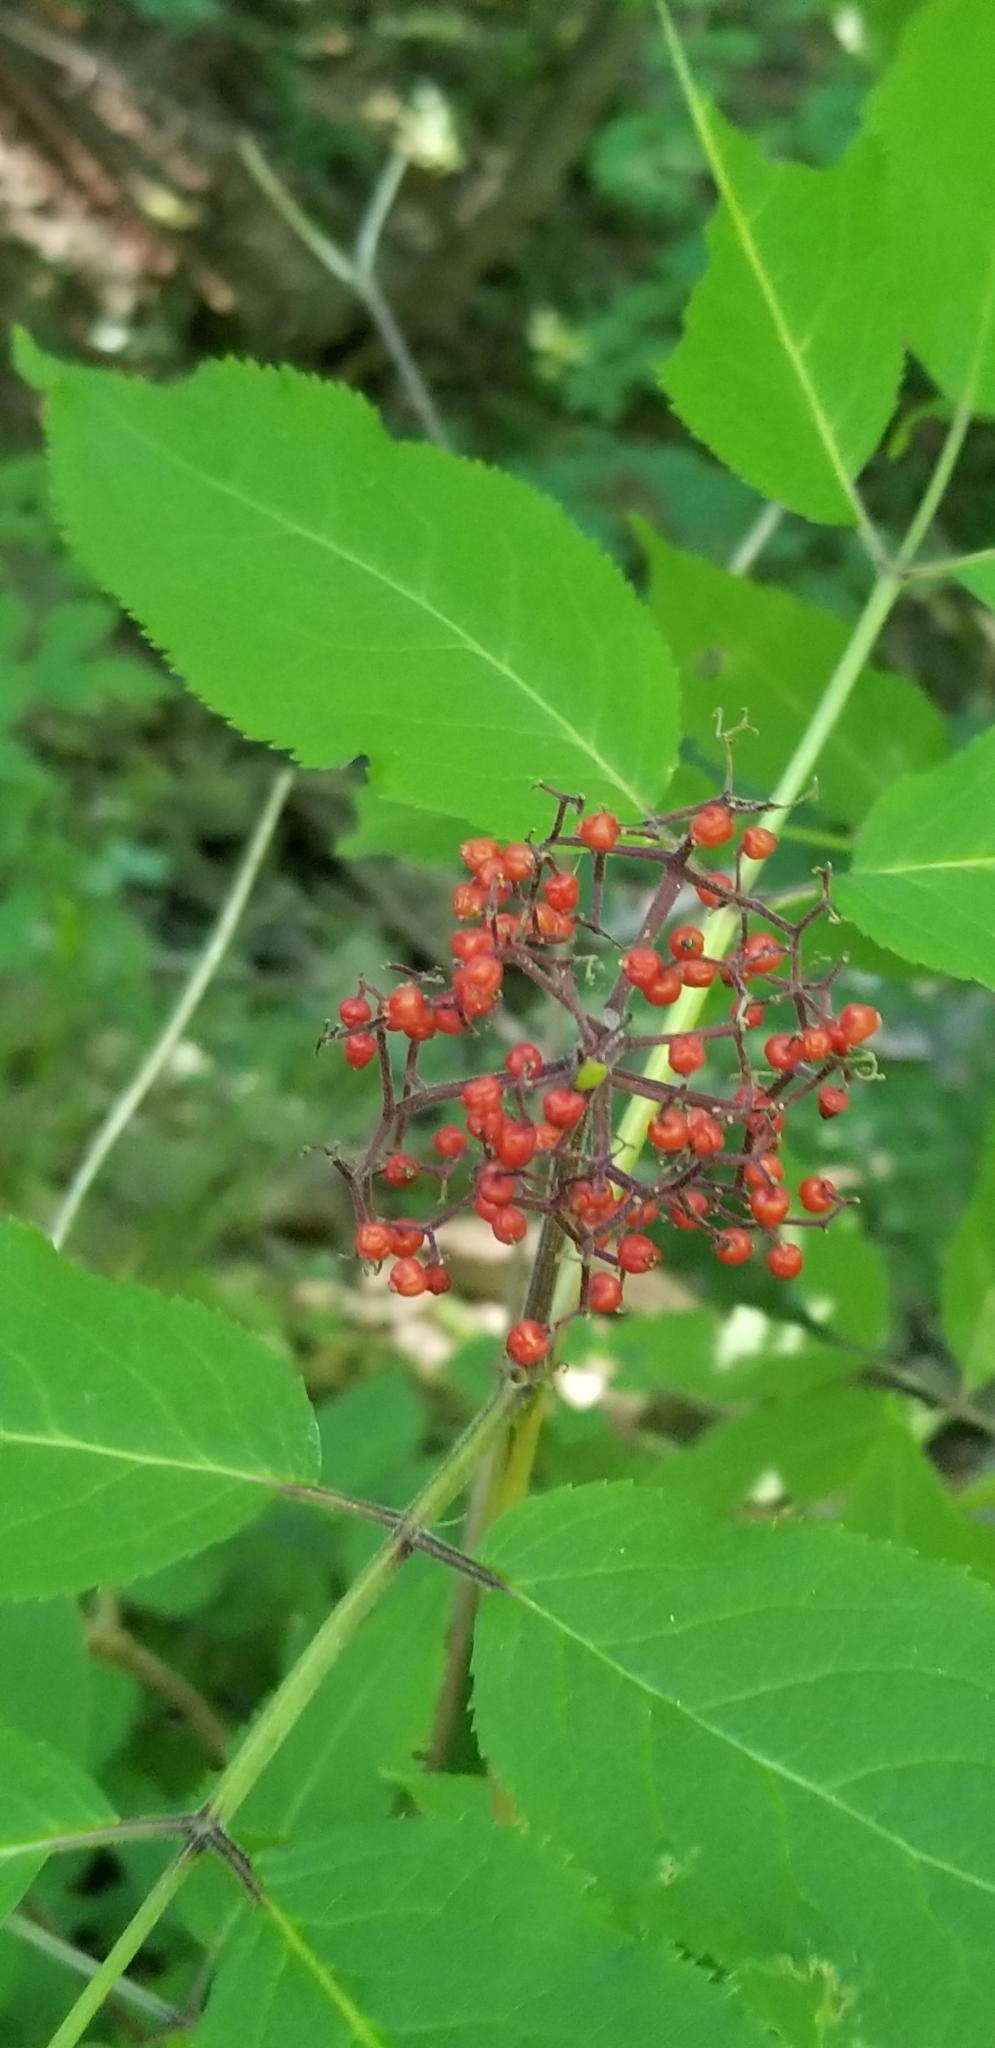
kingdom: Plantae
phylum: Tracheophyta
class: Magnoliopsida
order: Dipsacales
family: Viburnaceae
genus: Sambucus
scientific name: Sambucus racemosa
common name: Red-berried elder
